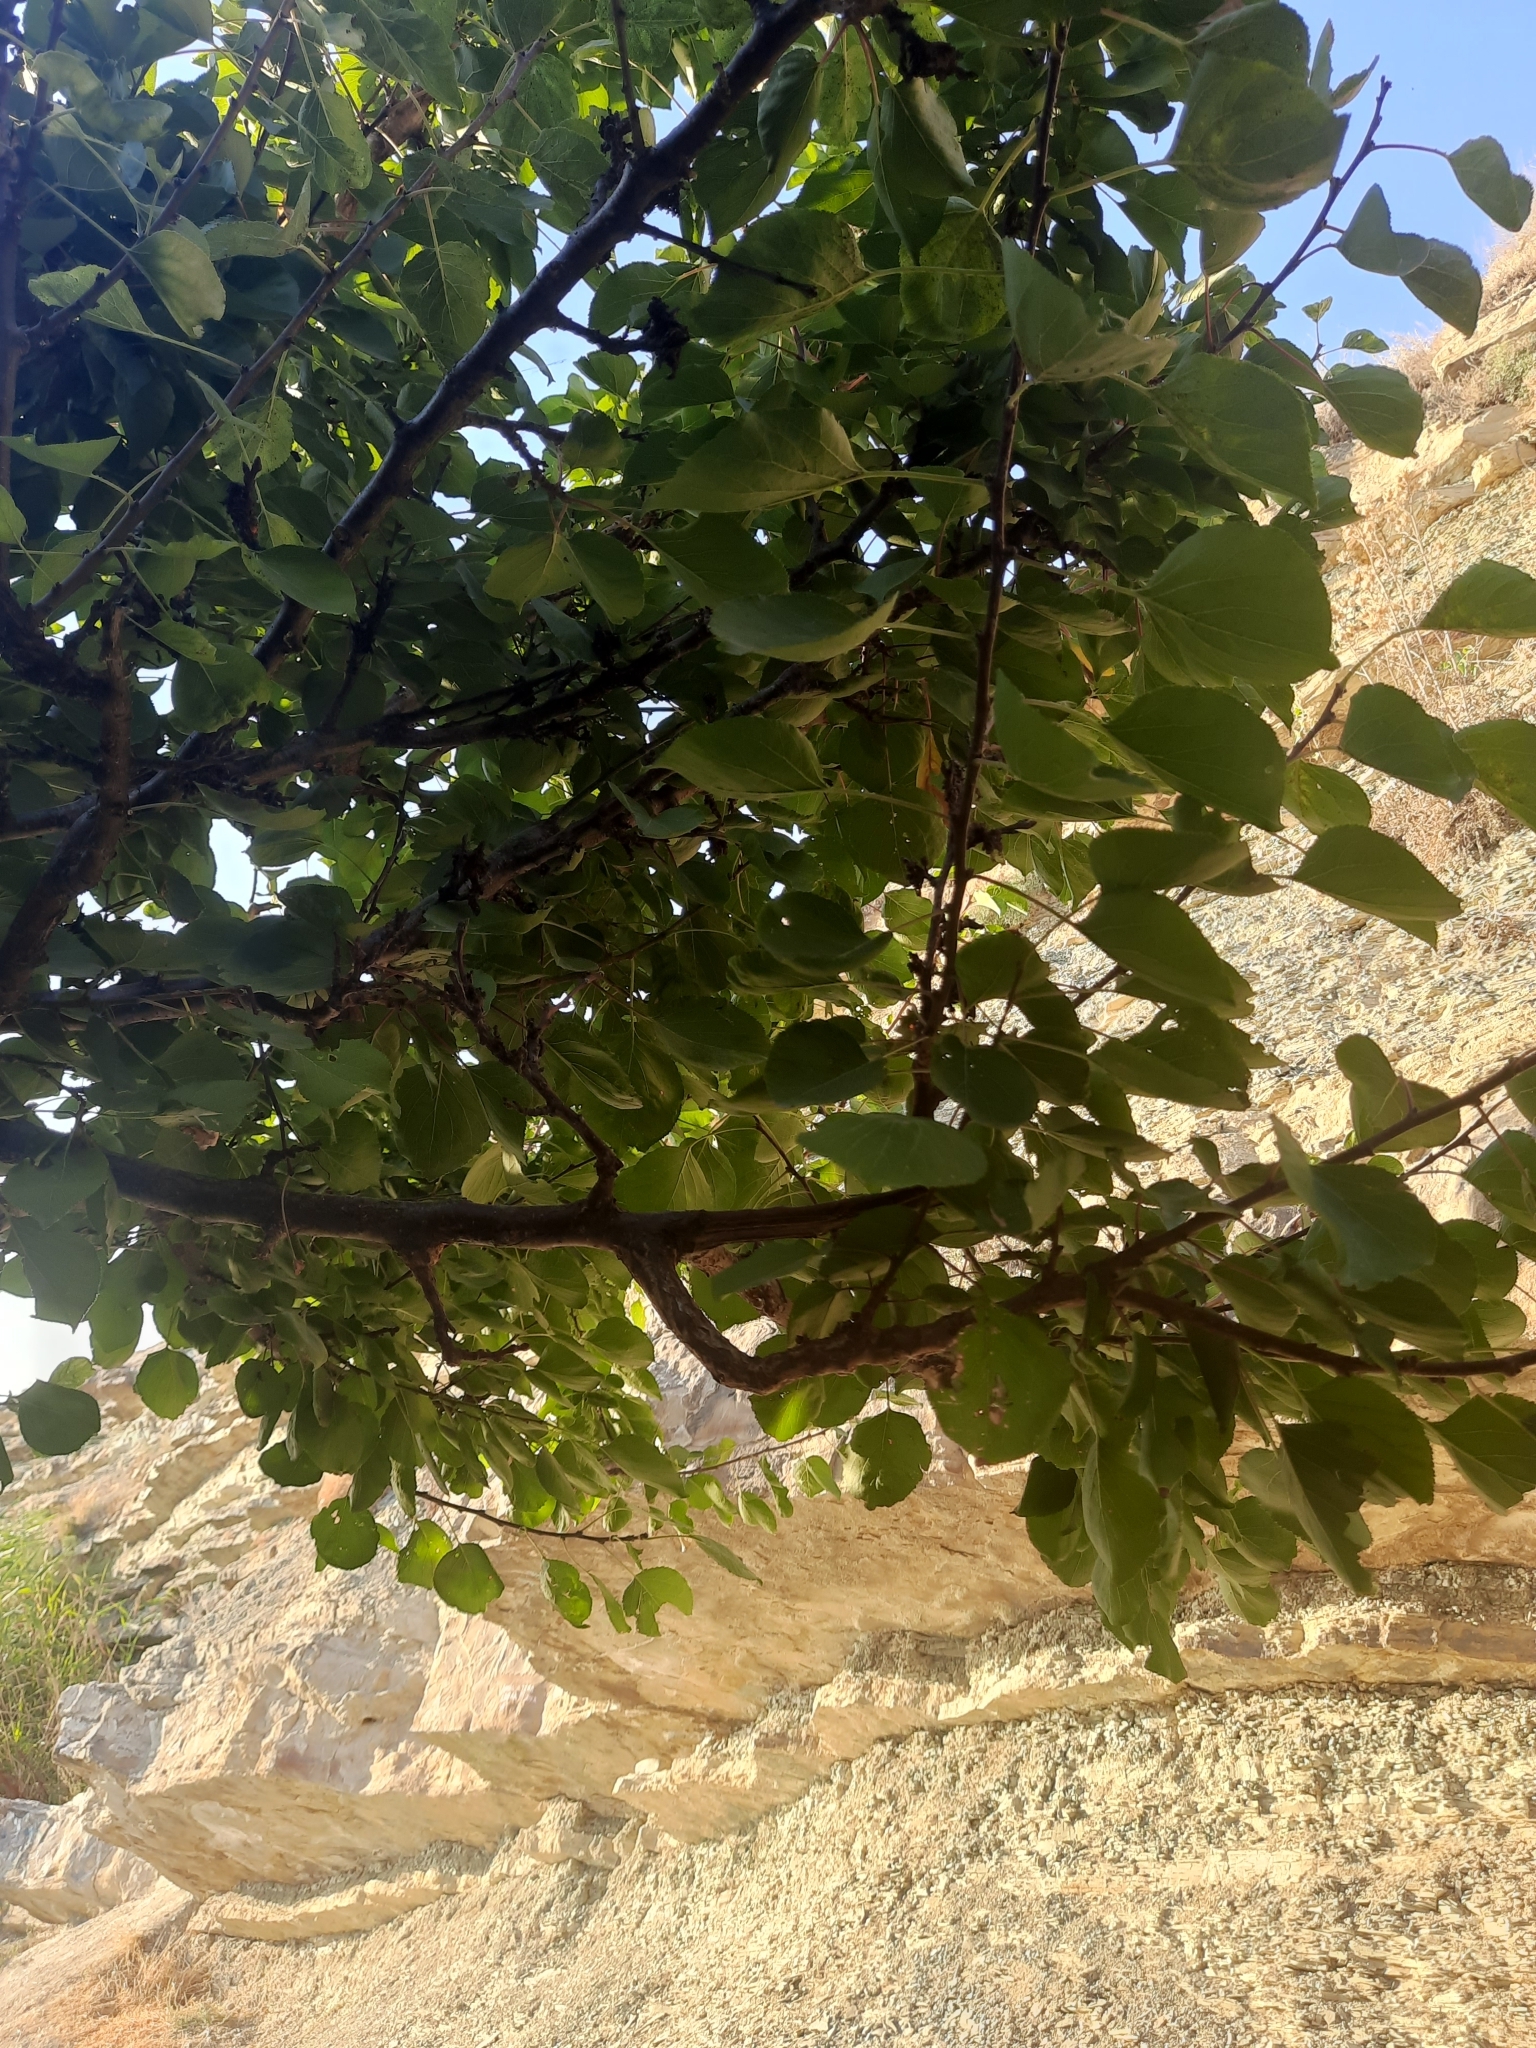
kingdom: Plantae
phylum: Tracheophyta
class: Magnoliopsida
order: Rosales
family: Rosaceae
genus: Prunus
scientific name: Prunus armeniaca
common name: Apricot
